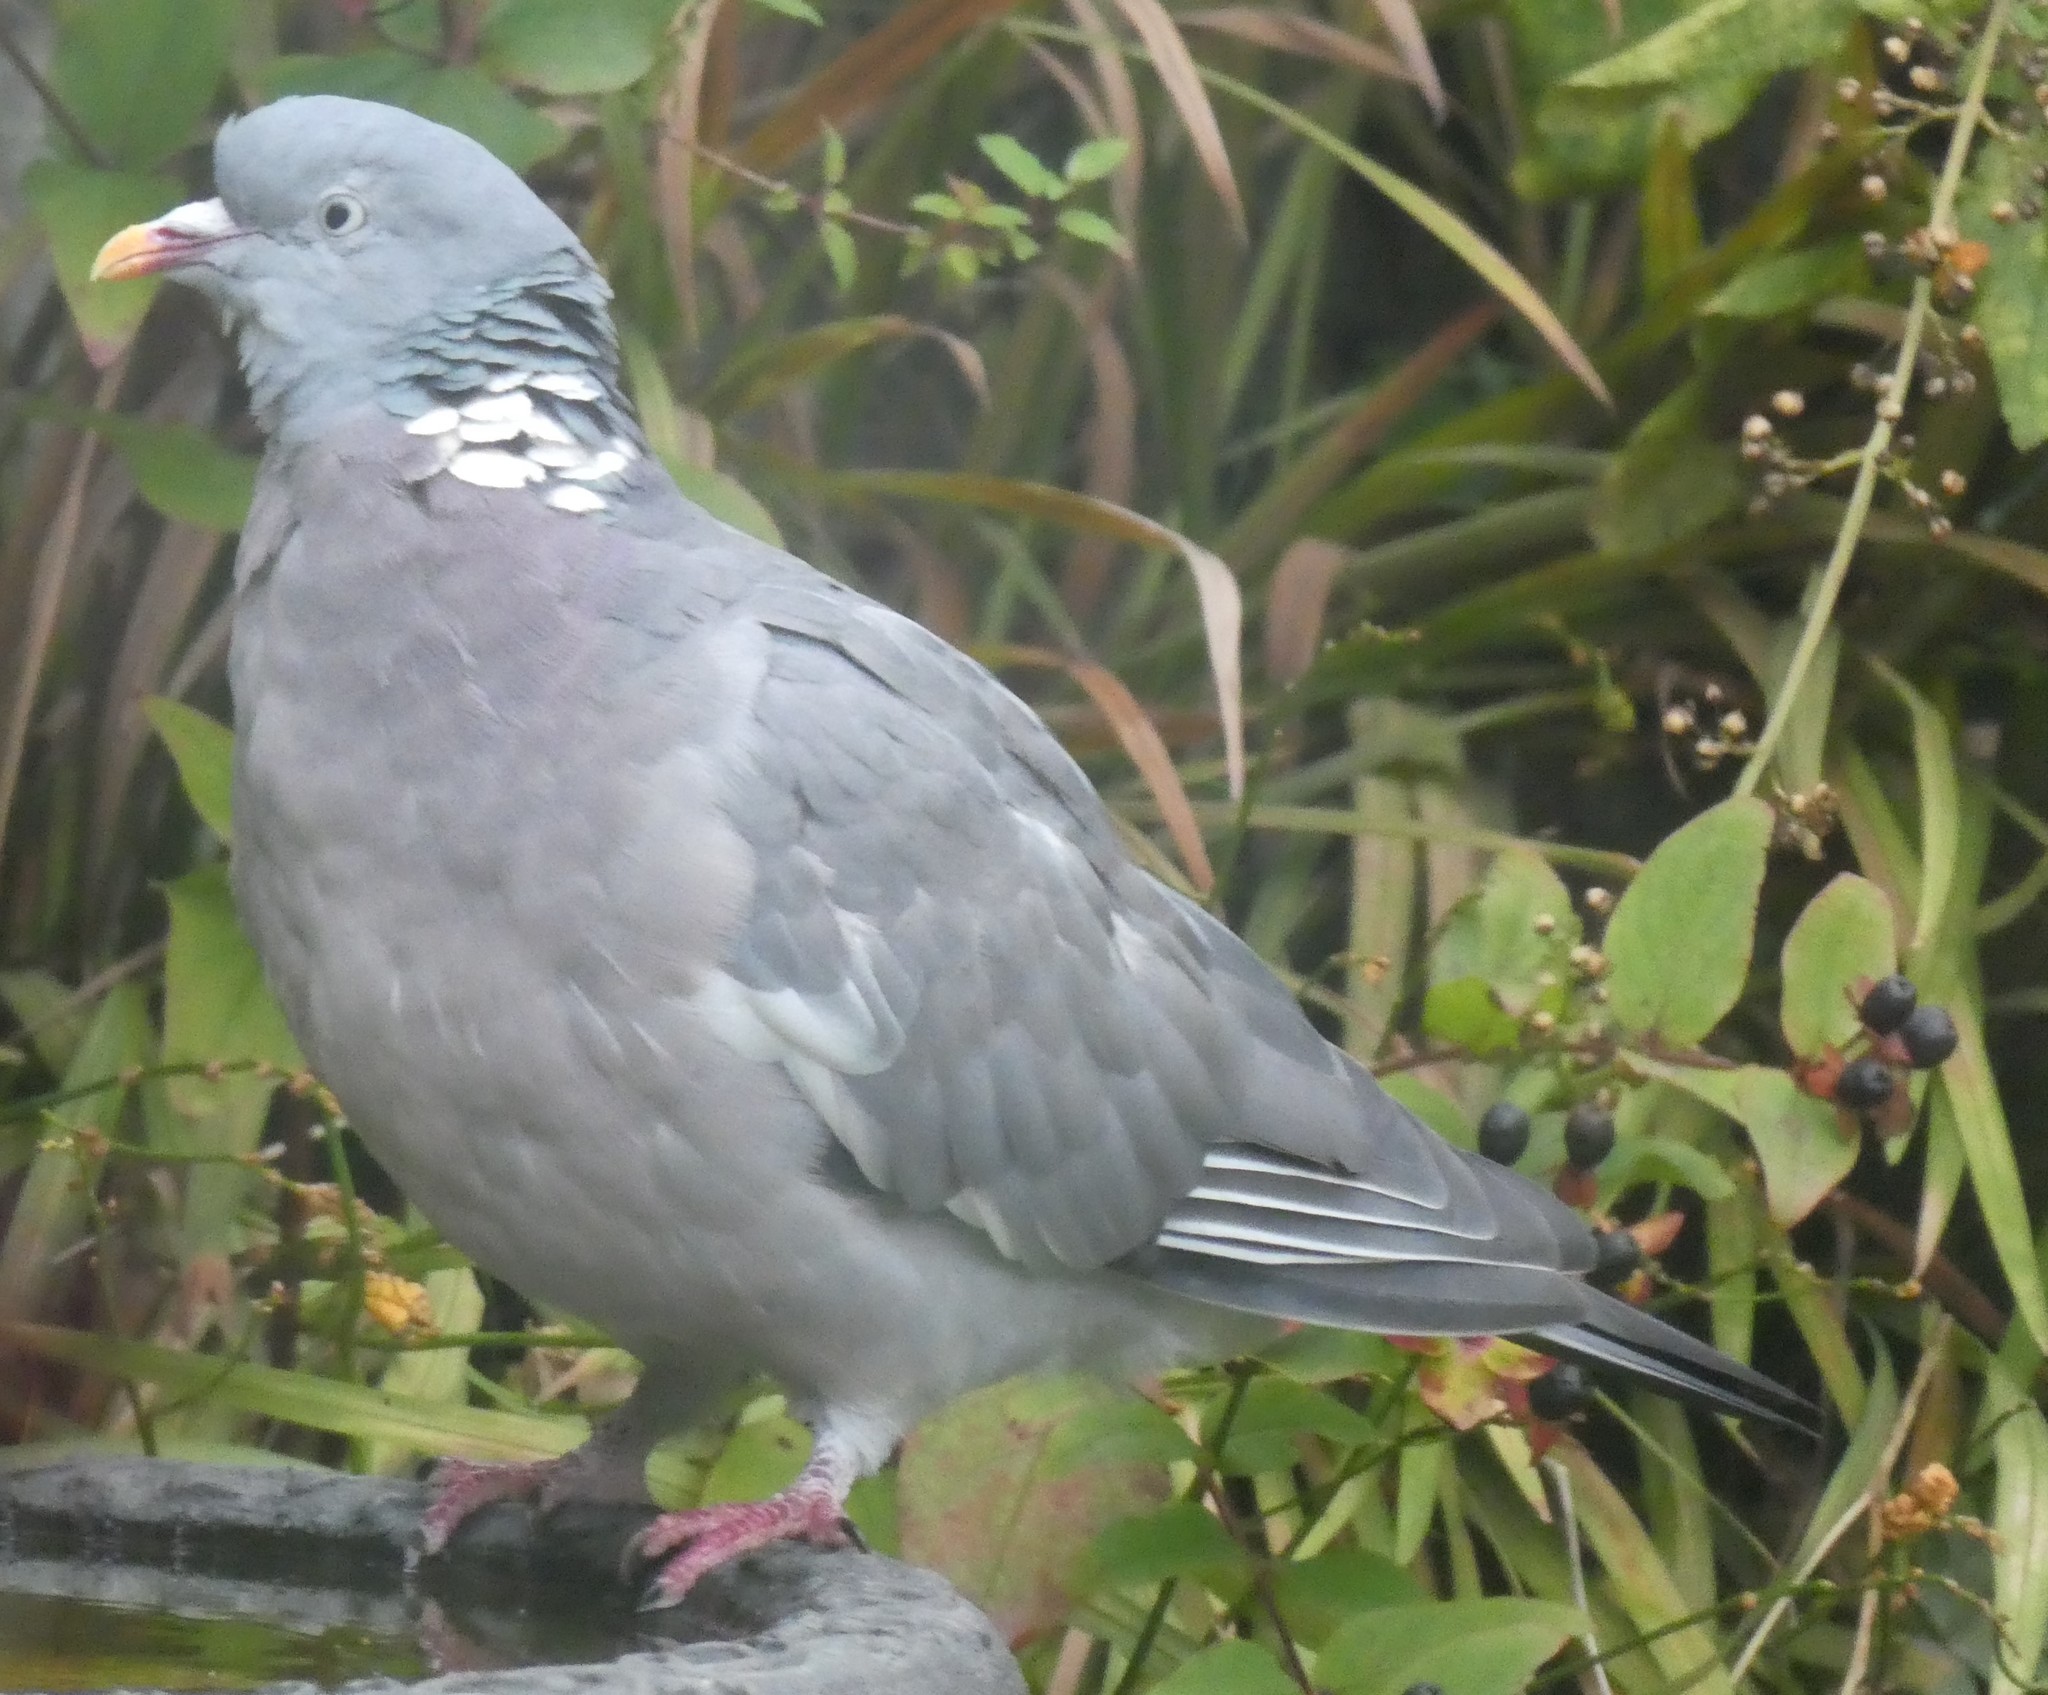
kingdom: Animalia
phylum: Chordata
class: Aves
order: Columbiformes
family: Columbidae
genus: Columba
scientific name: Columba palumbus
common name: Common wood pigeon
